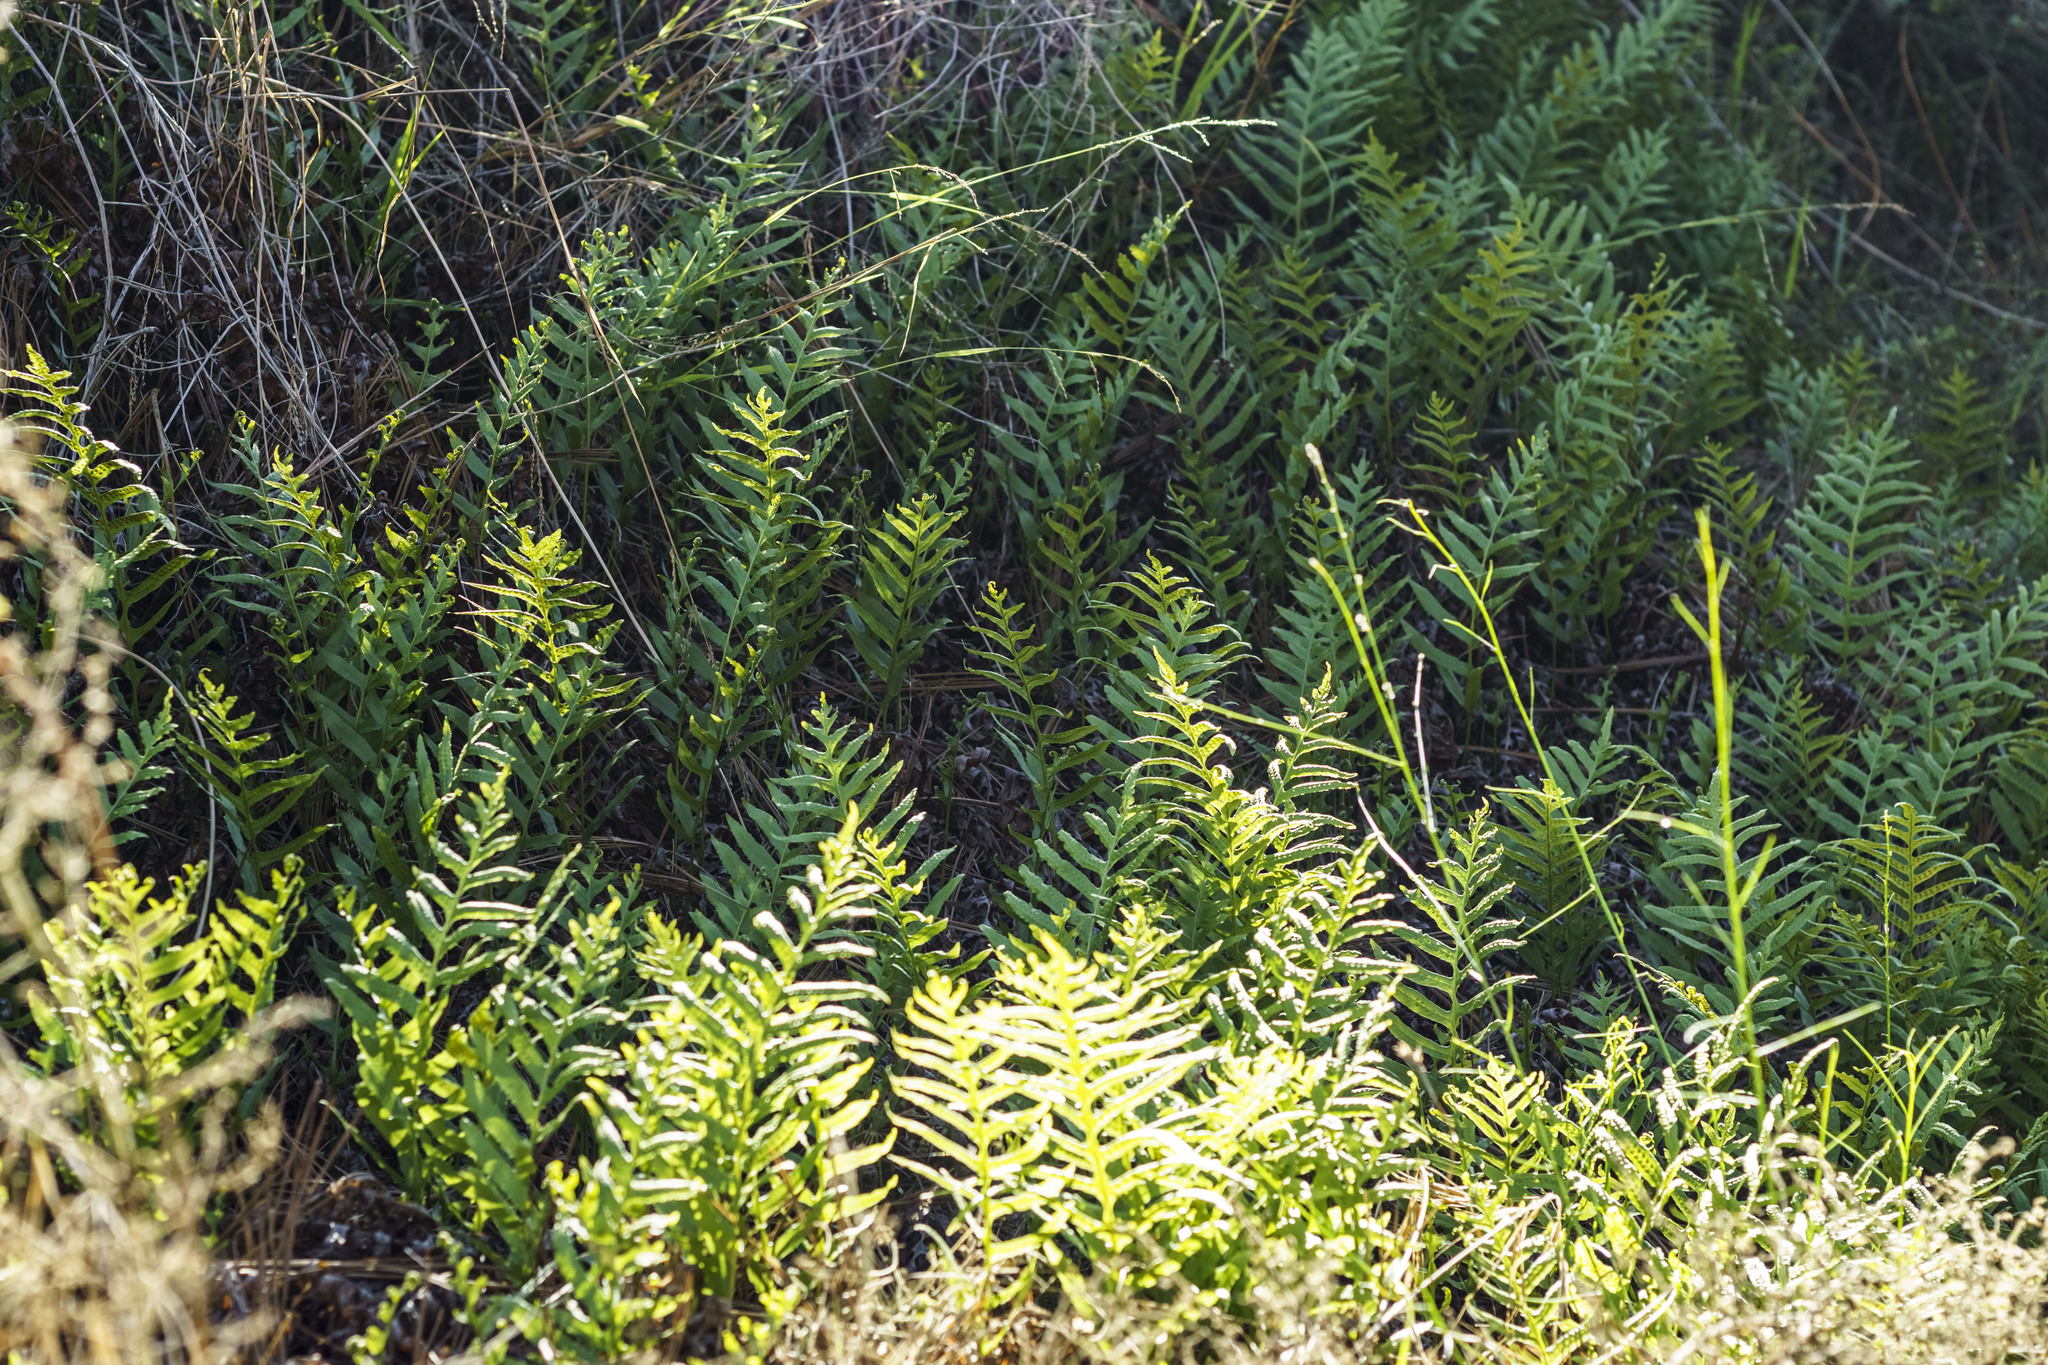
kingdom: Plantae
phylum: Tracheophyta
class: Polypodiopsida
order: Polypodiales
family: Polypodiaceae
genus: Polypodium
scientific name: Polypodium californicum
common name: California polypody
